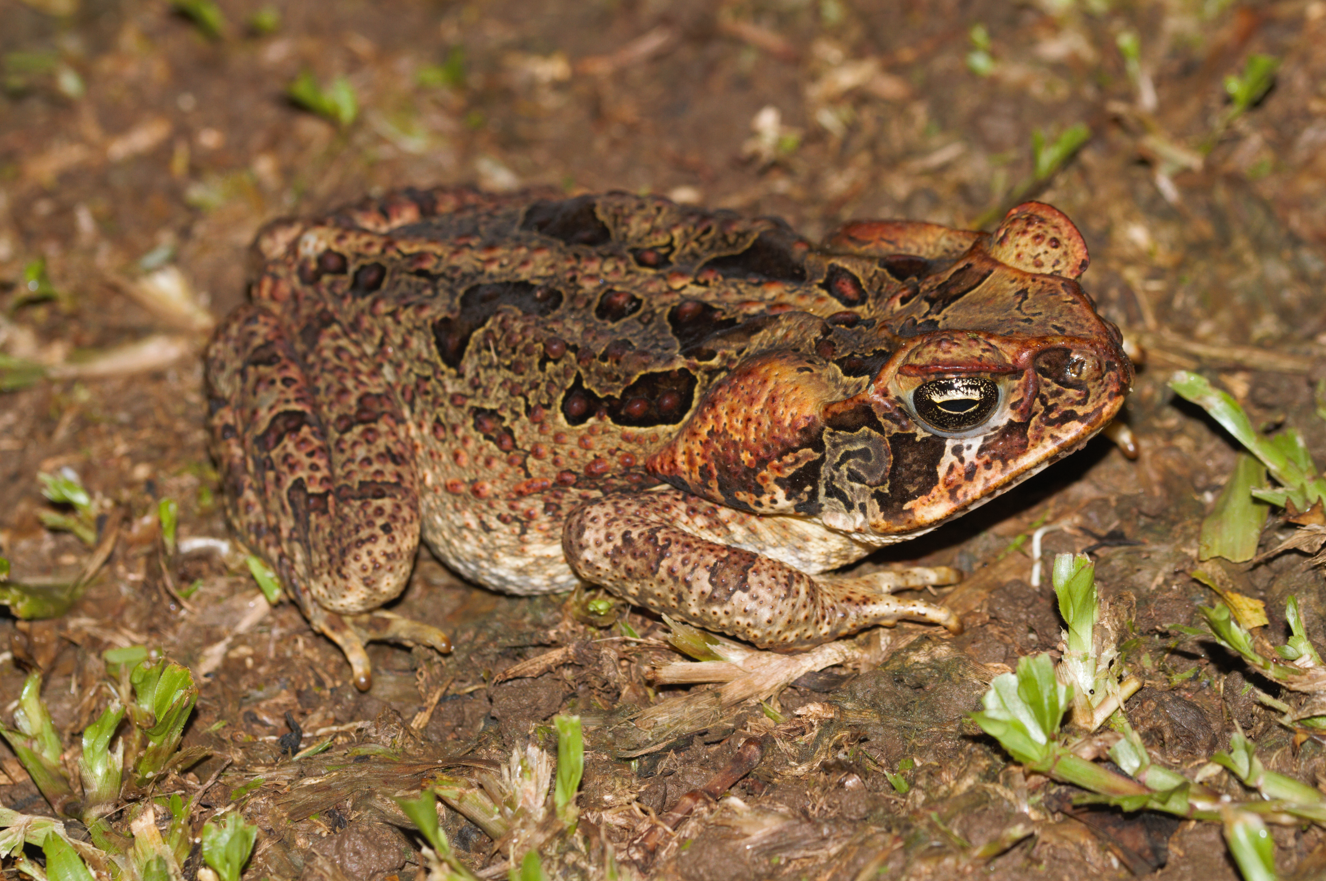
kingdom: Animalia
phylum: Chordata
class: Amphibia
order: Anura
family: Bufonidae
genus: Rhinella
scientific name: Rhinella marina
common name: Cane toad
